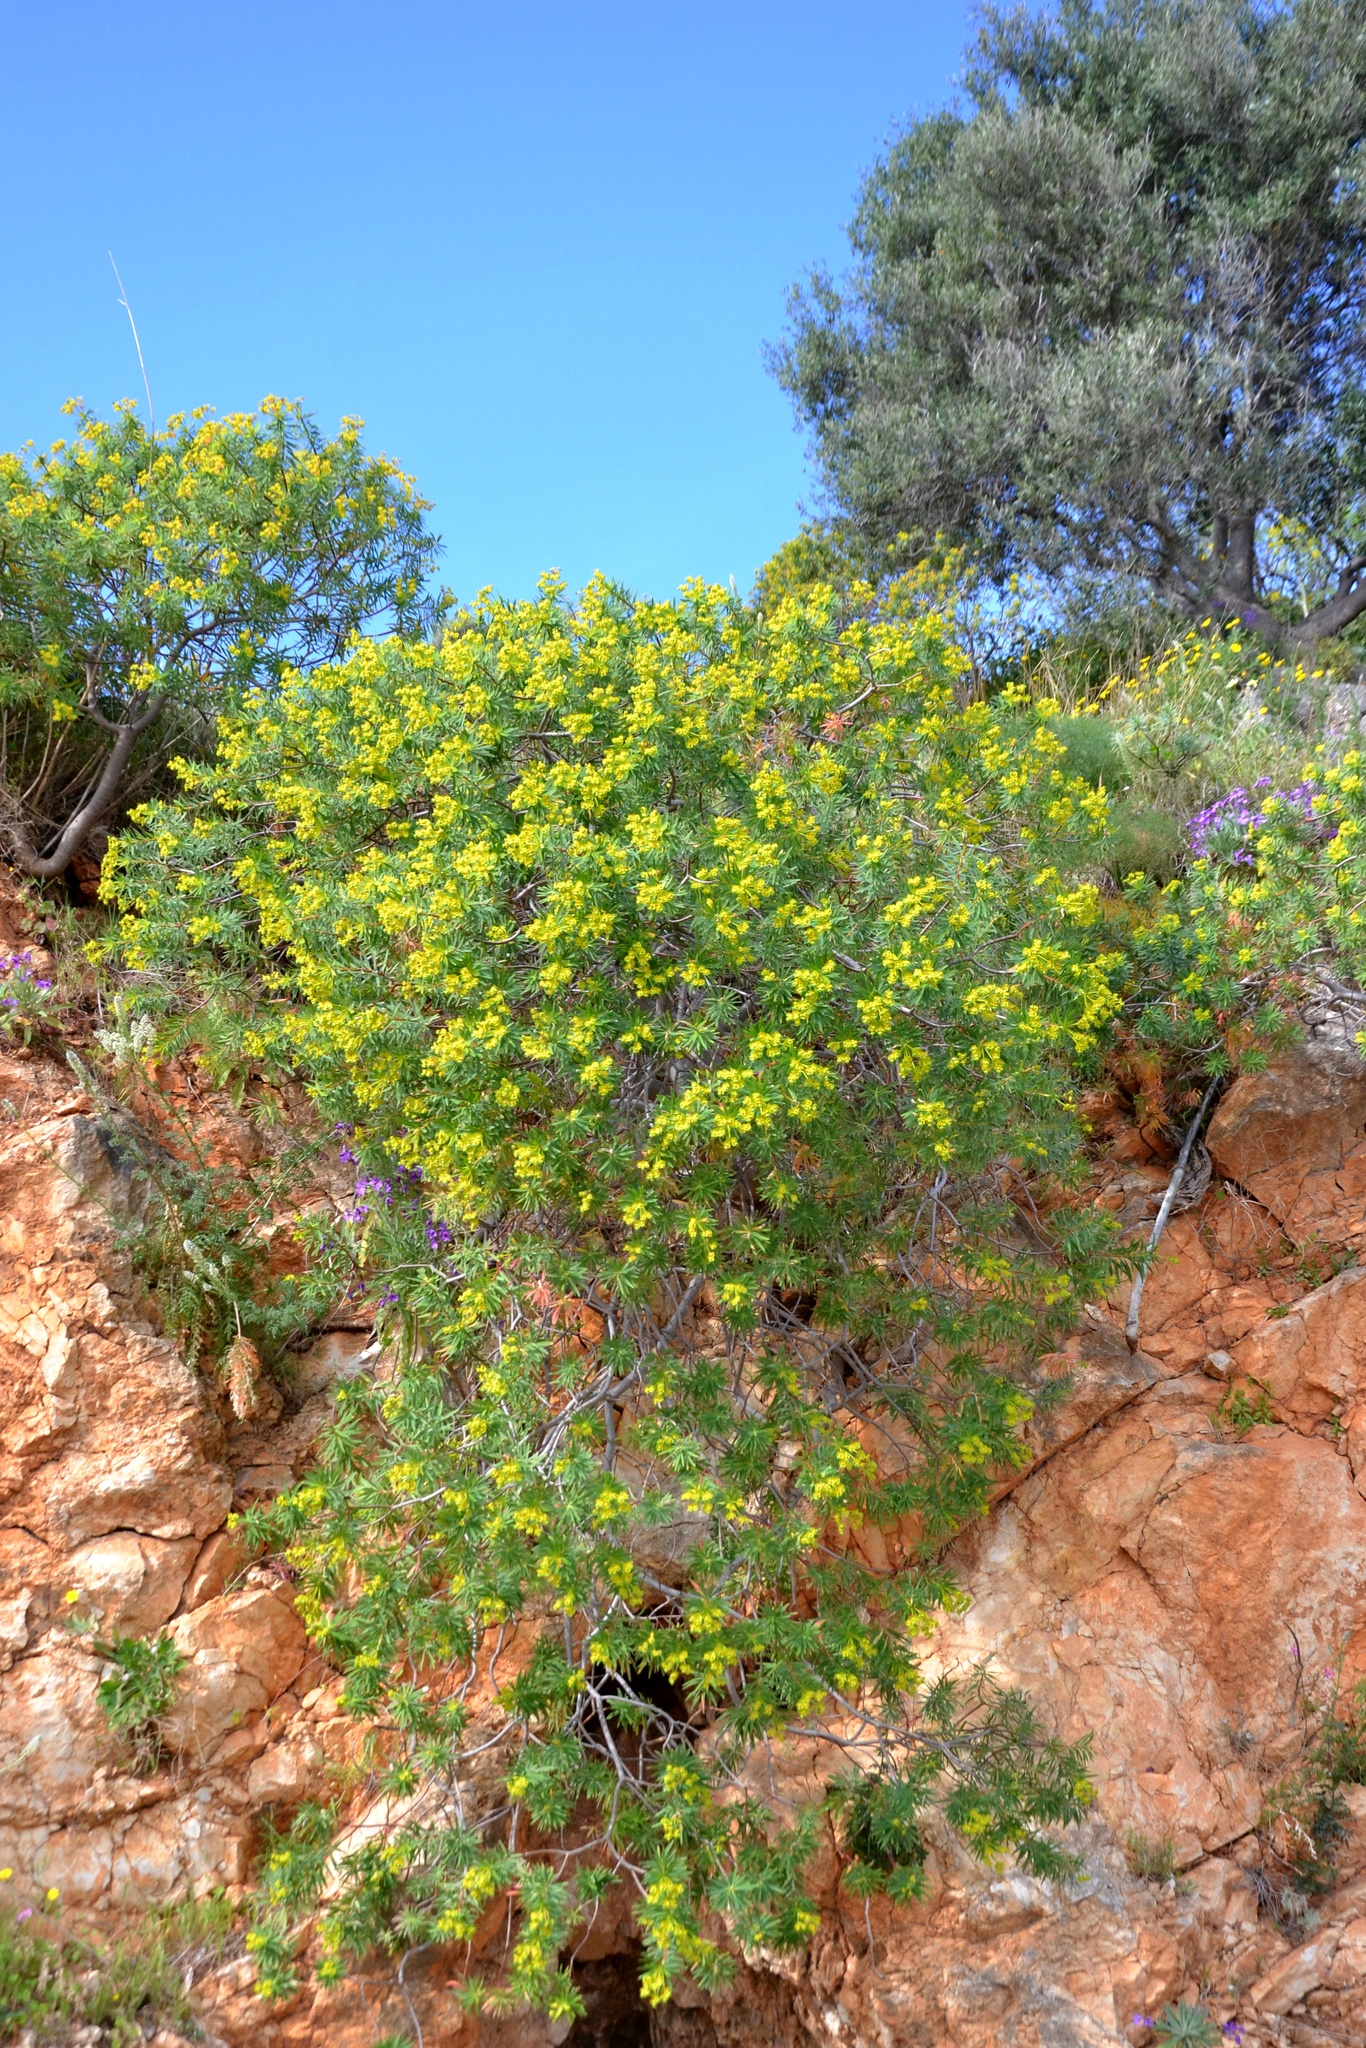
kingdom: Plantae
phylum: Tracheophyta
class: Magnoliopsida
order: Malpighiales
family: Euphorbiaceae
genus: Euphorbia
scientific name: Euphorbia dendroides
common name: Tree spurge
